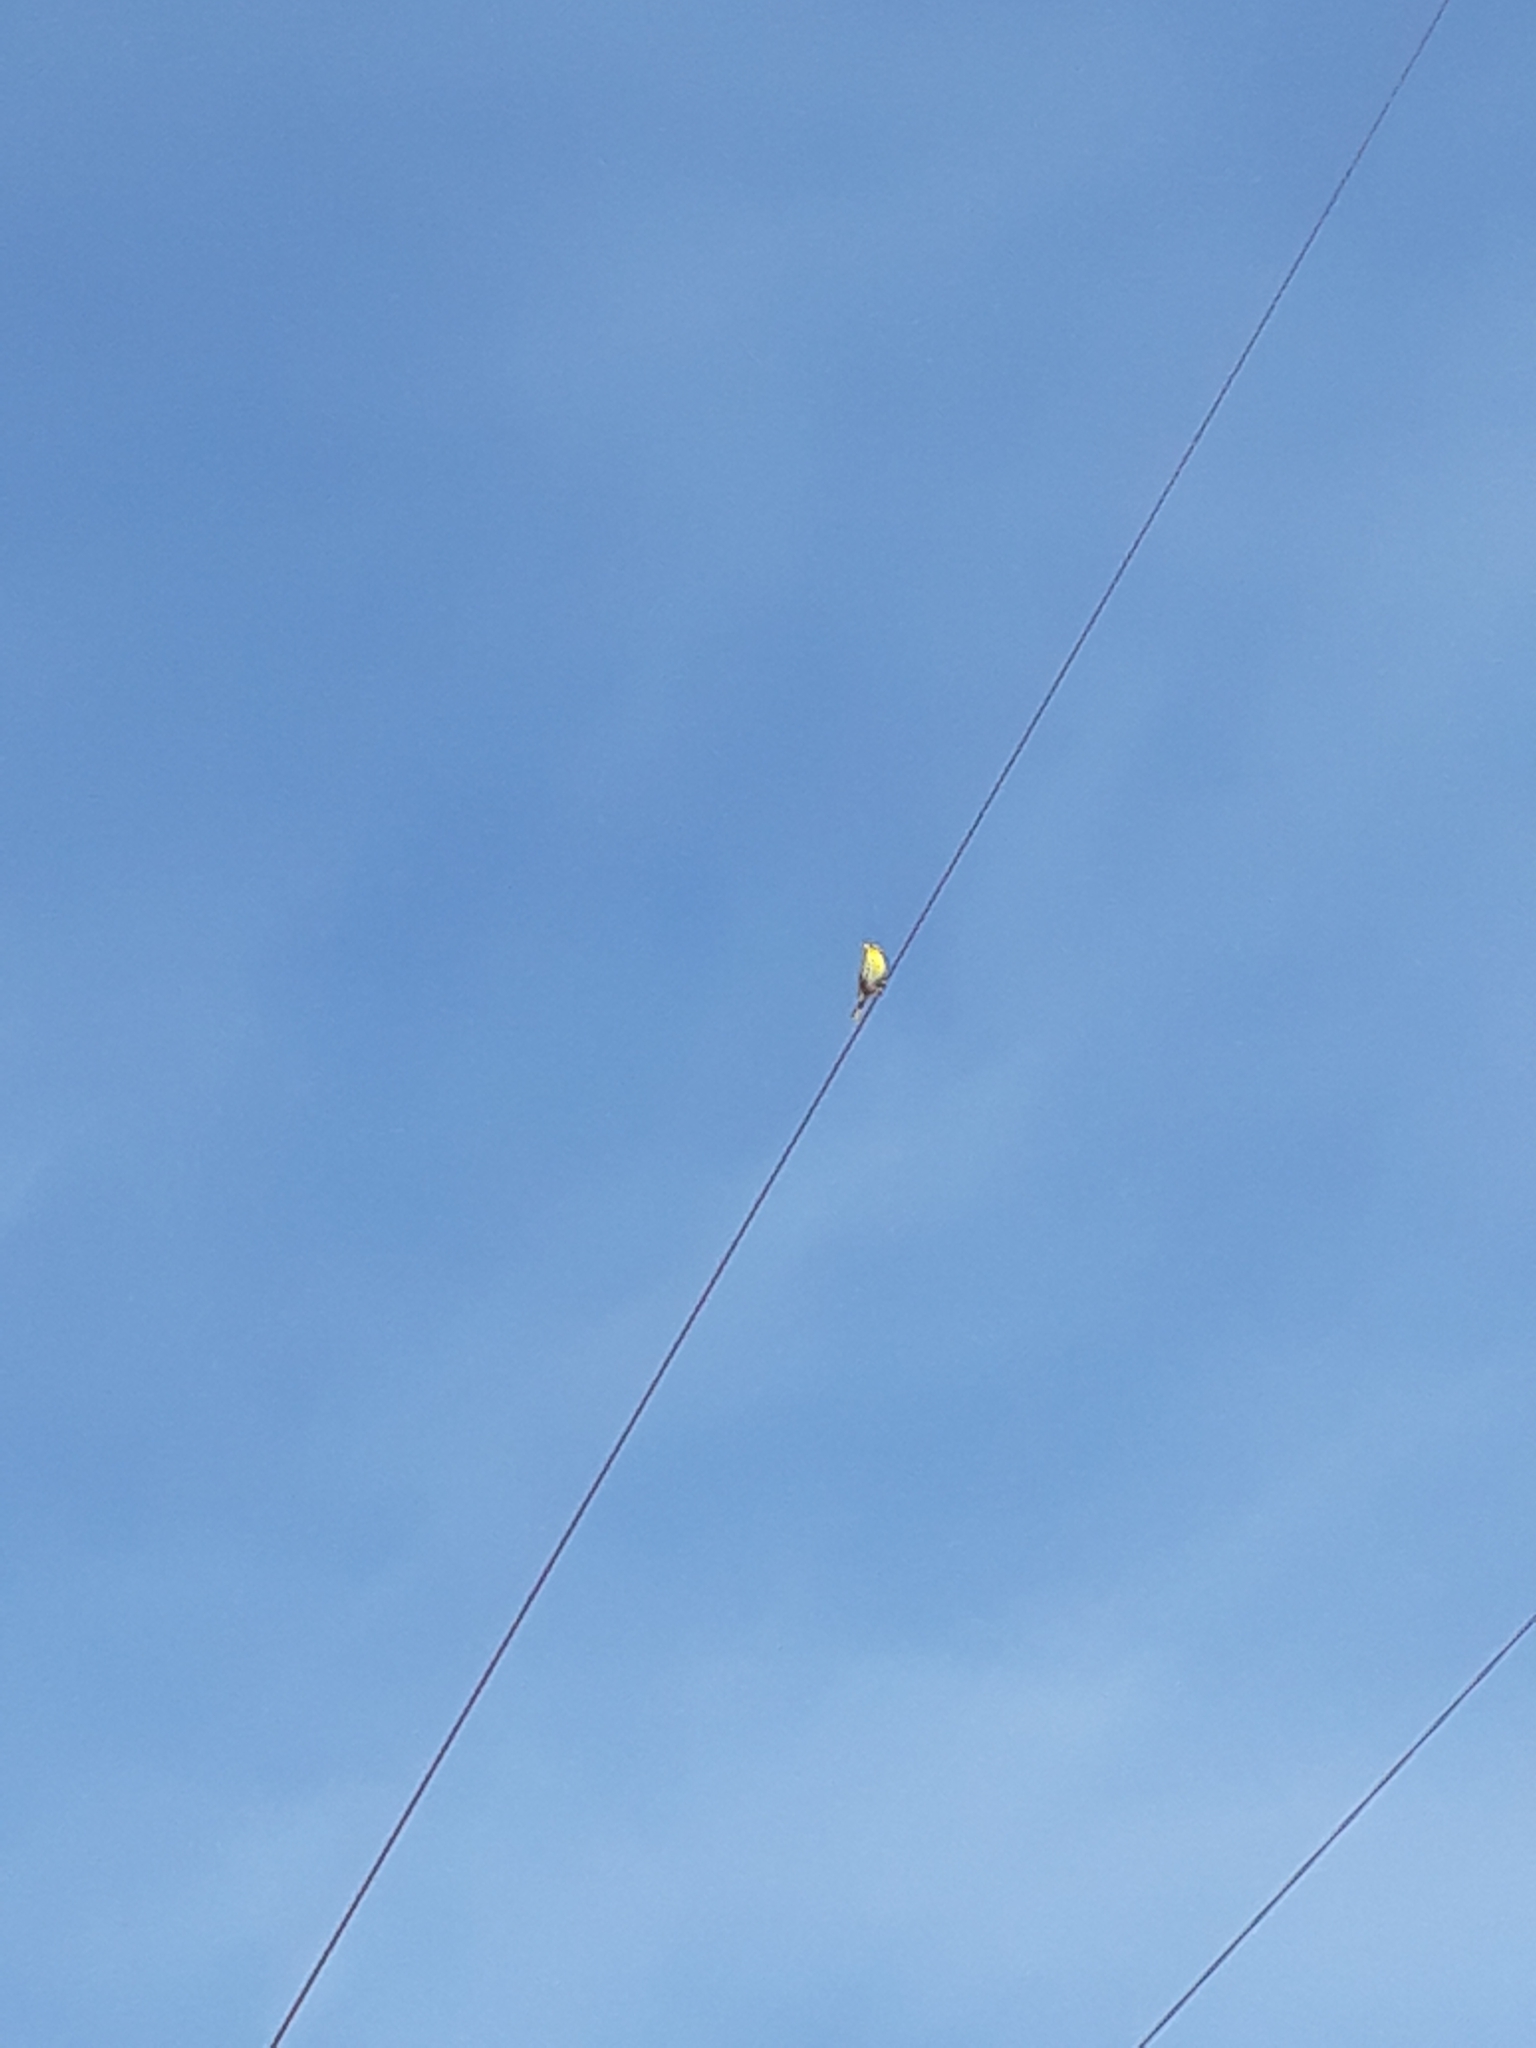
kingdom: Animalia
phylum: Chordata
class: Aves
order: Passeriformes
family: Fringillidae
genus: Serinus
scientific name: Serinus serinus
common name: European serin
